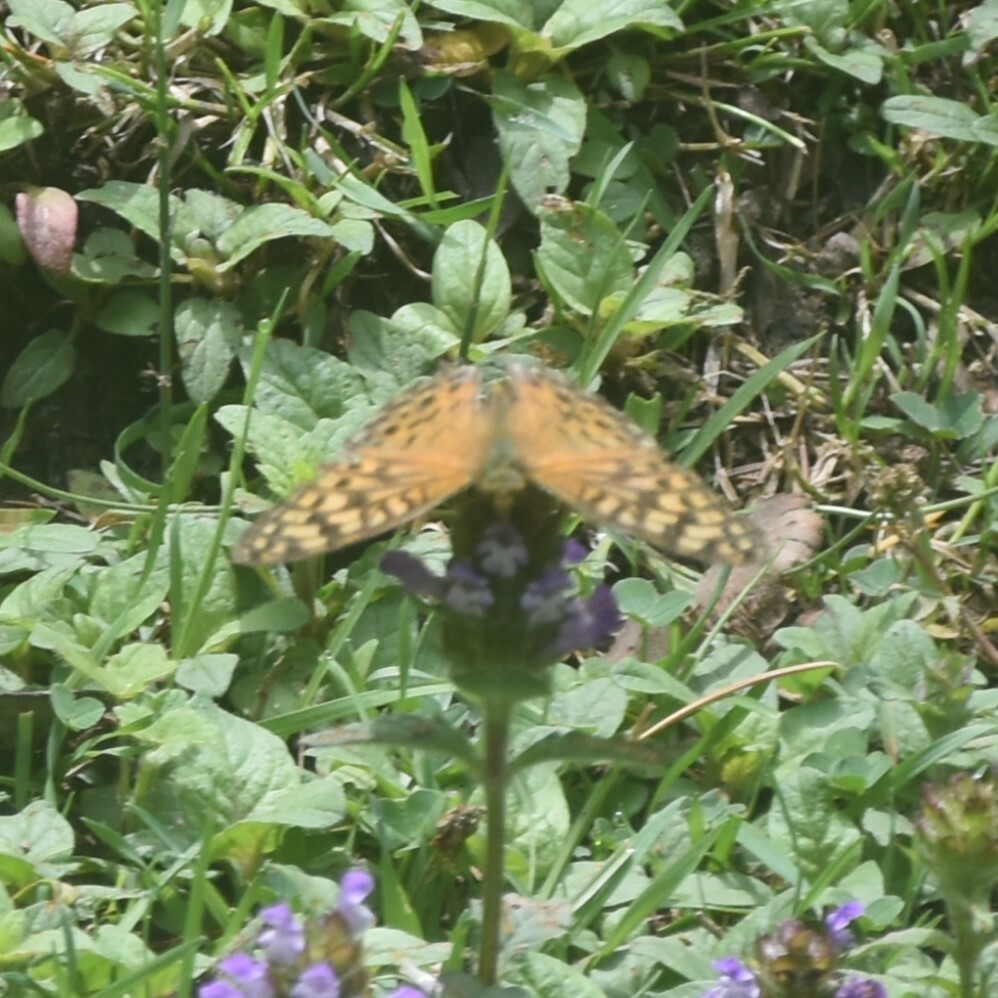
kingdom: Animalia
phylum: Arthropoda
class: Insecta
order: Lepidoptera
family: Nymphalidae
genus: Fabriciana
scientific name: Fabriciana kamala
